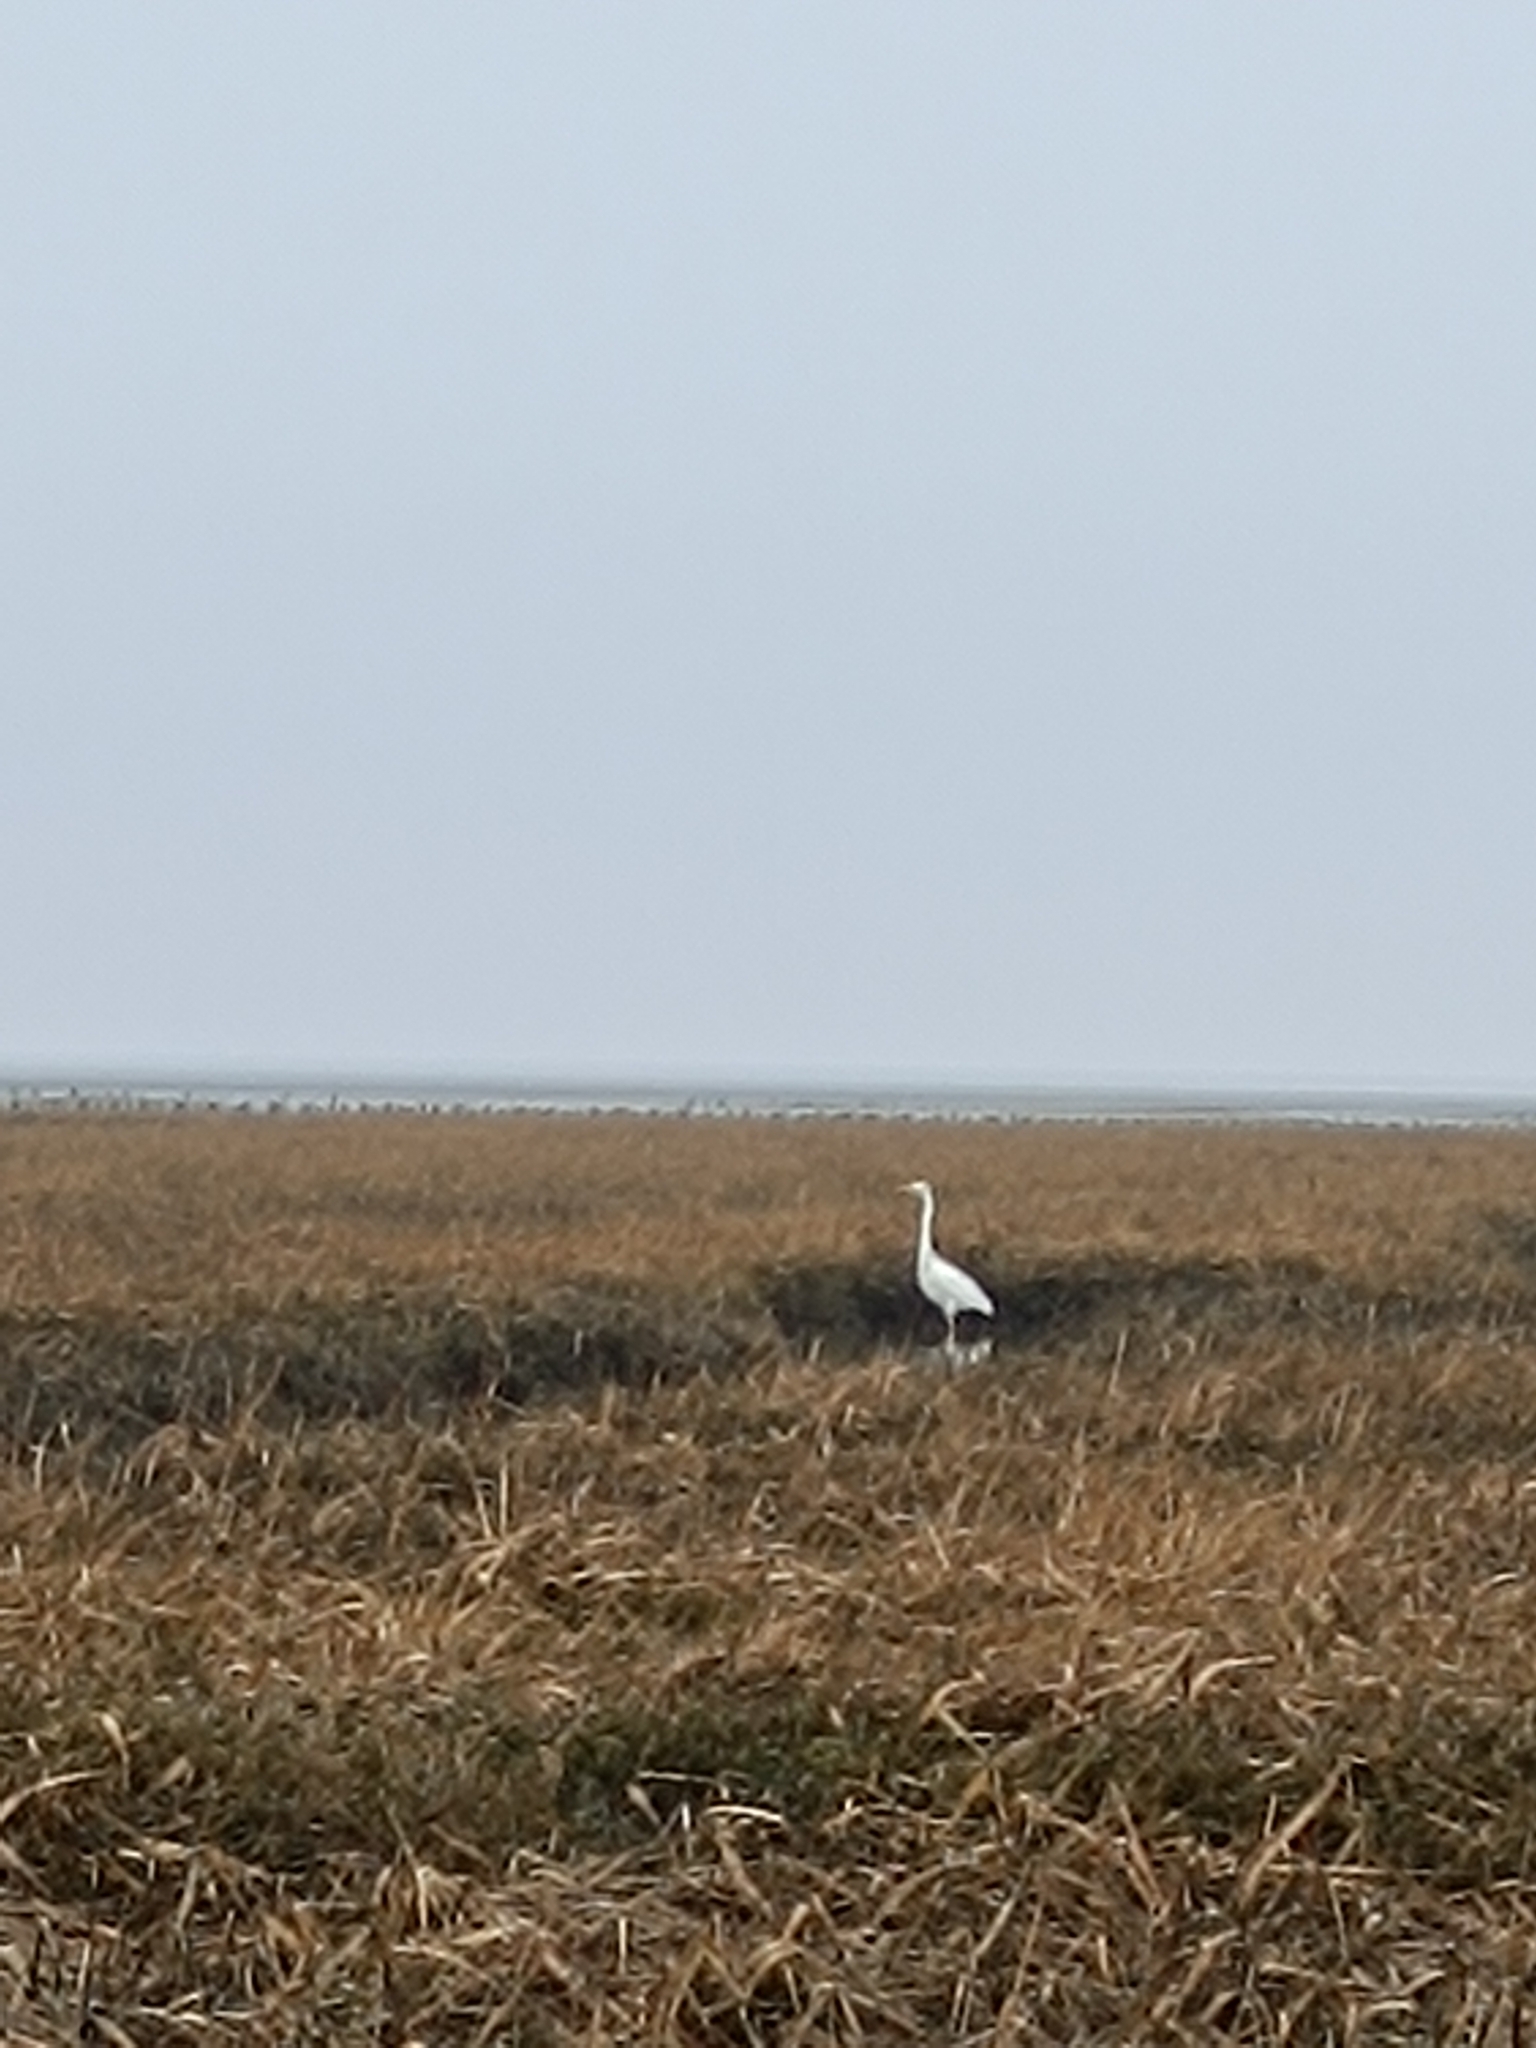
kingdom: Animalia
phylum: Chordata
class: Aves
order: Pelecaniformes
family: Ardeidae
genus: Ardea
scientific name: Ardea alba
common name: Great egret
